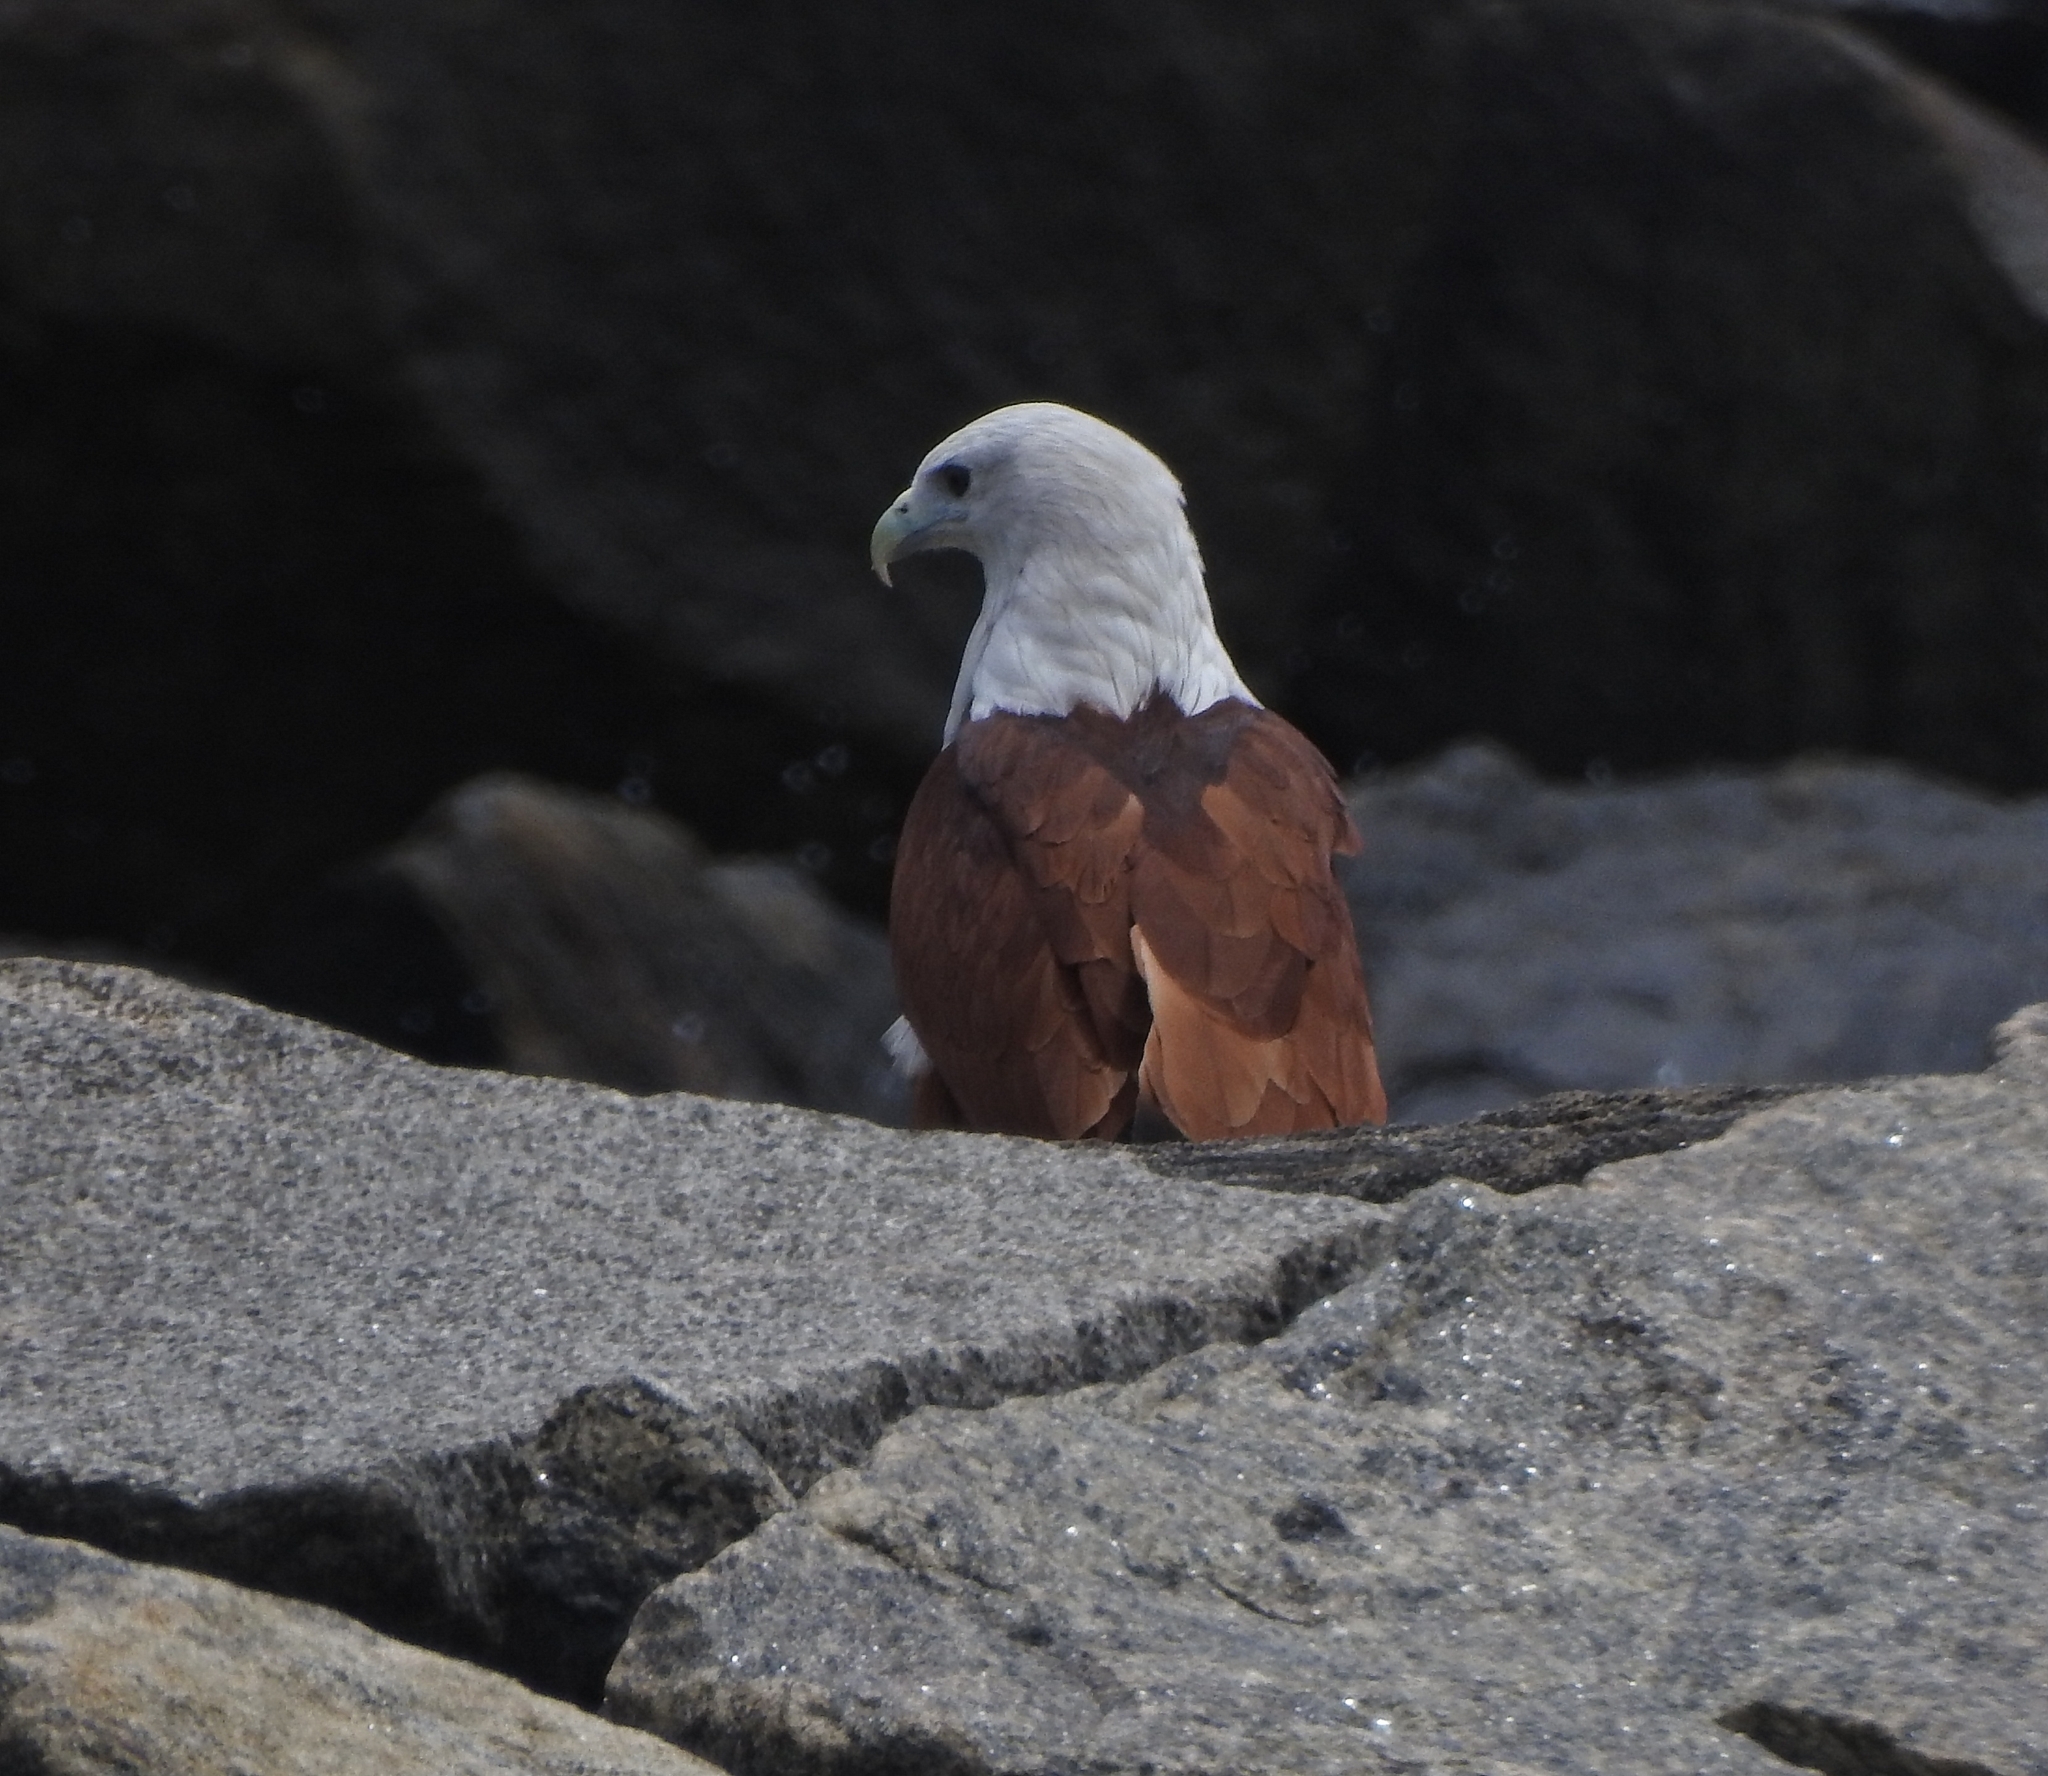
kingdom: Animalia
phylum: Chordata
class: Aves
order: Accipitriformes
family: Accipitridae
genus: Haliastur
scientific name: Haliastur indus
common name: Brahminy kite
